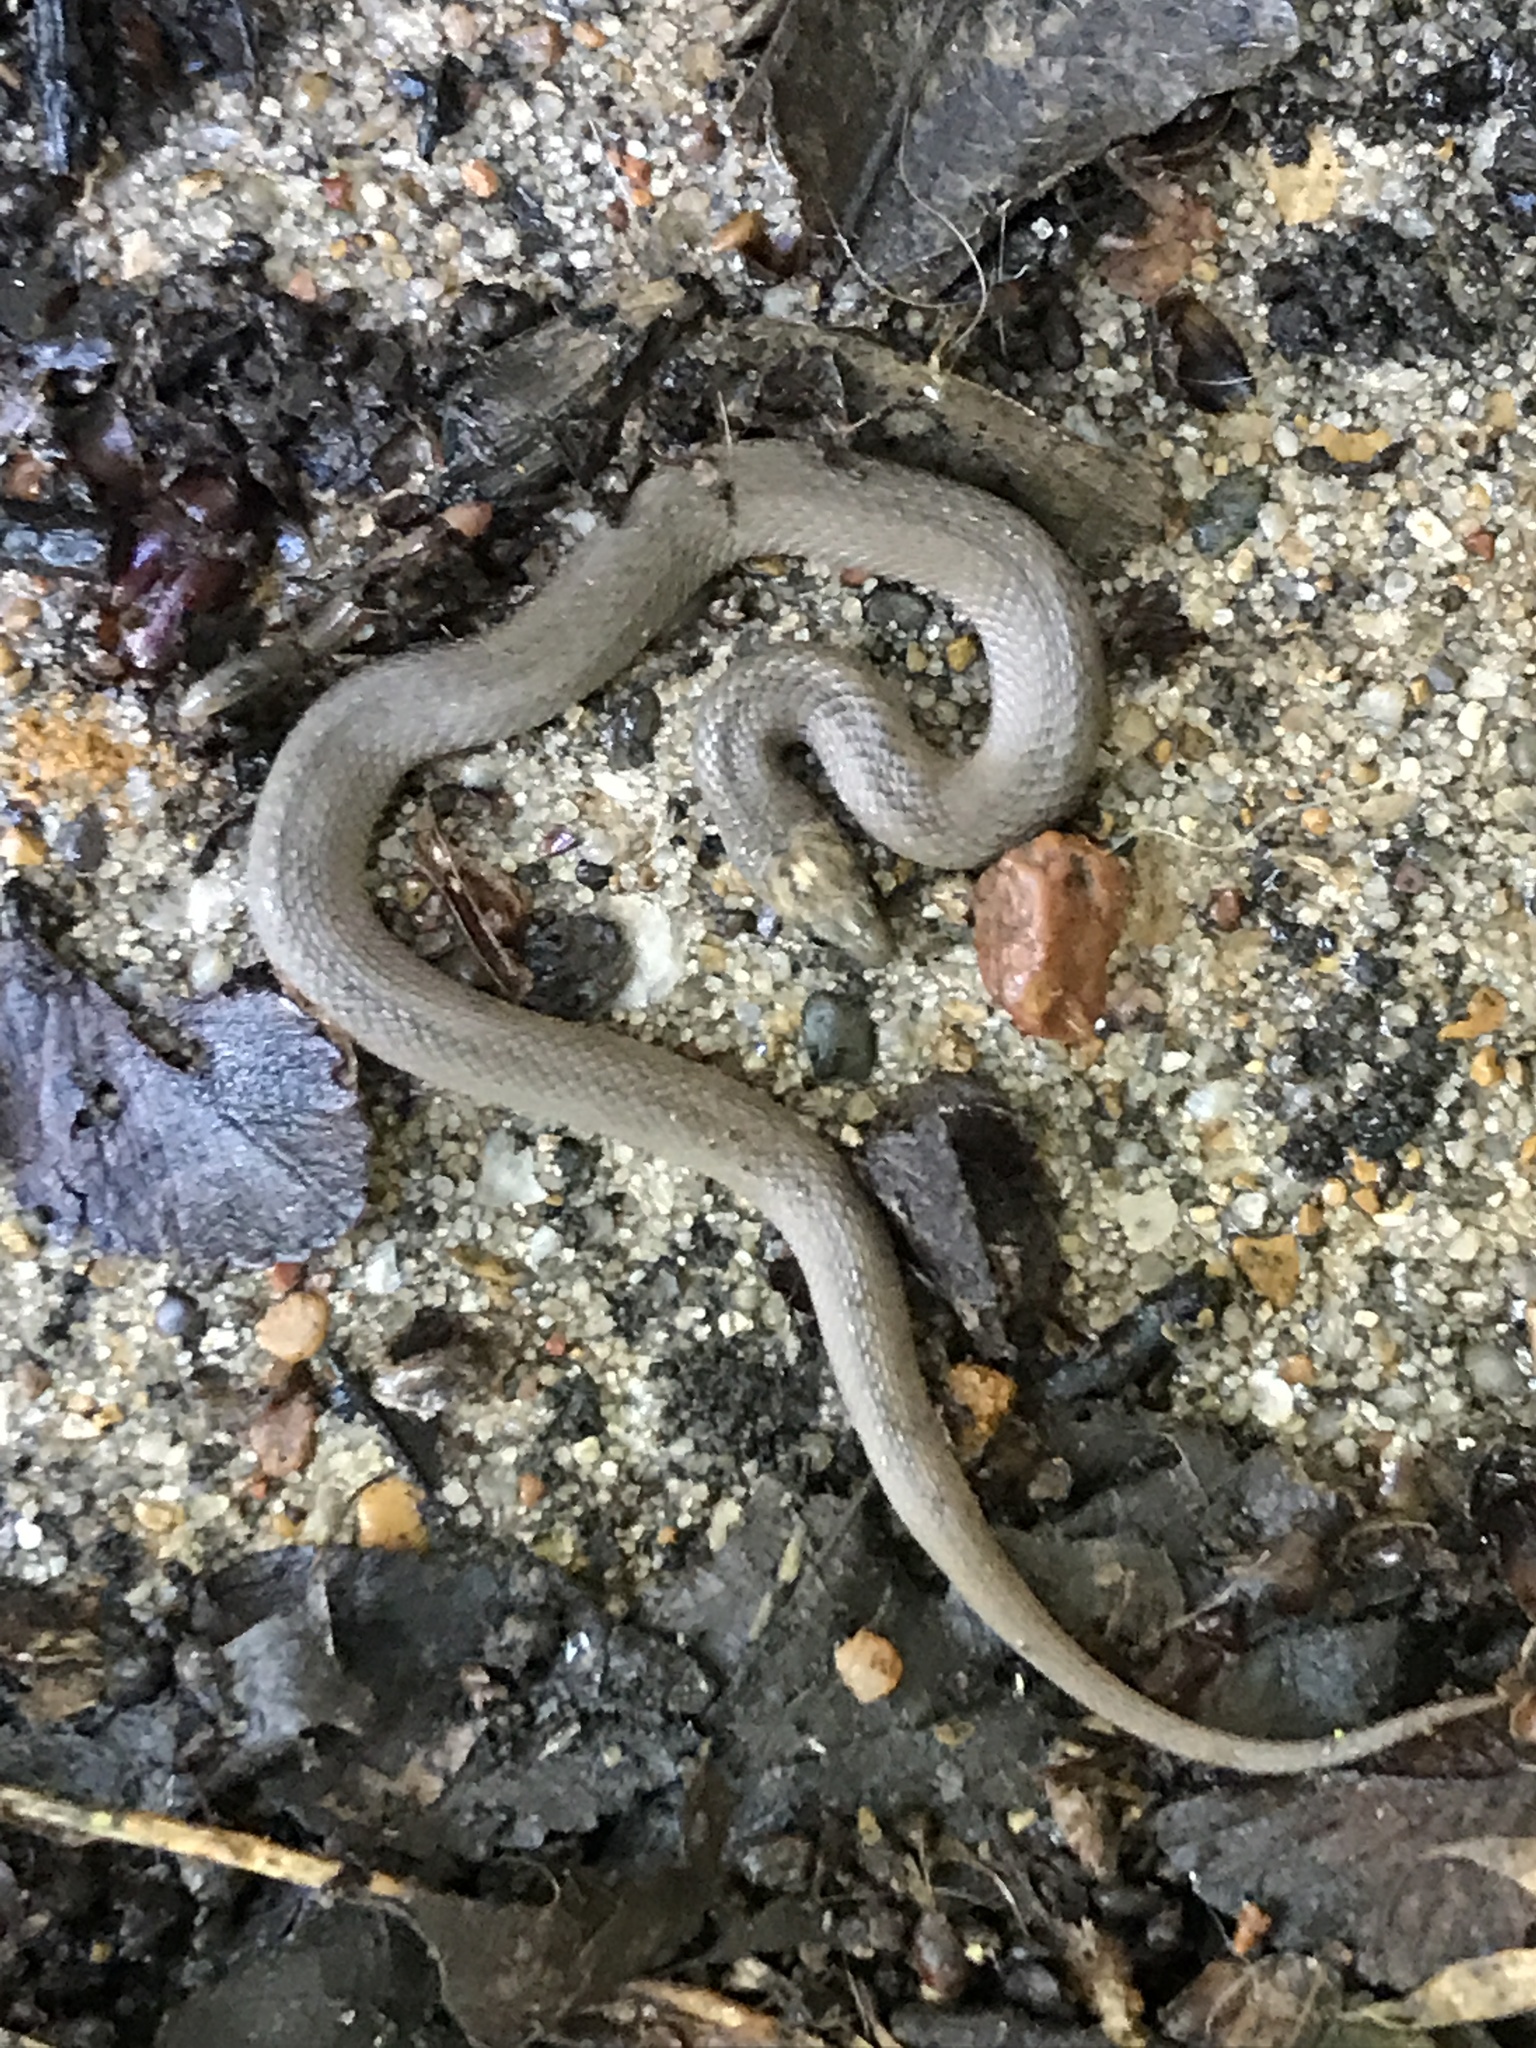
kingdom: Animalia
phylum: Chordata
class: Squamata
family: Colubridae
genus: Haldea
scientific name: Haldea striatula
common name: Rough earth snake
